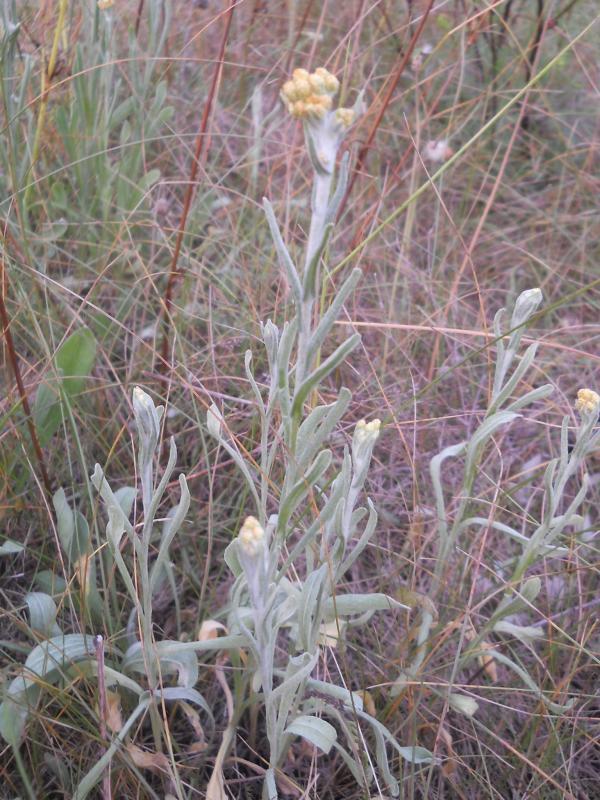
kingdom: Plantae
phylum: Tracheophyta
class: Magnoliopsida
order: Asterales
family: Asteraceae
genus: Helichrysum
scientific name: Helichrysum arenarium
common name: Strawflower
